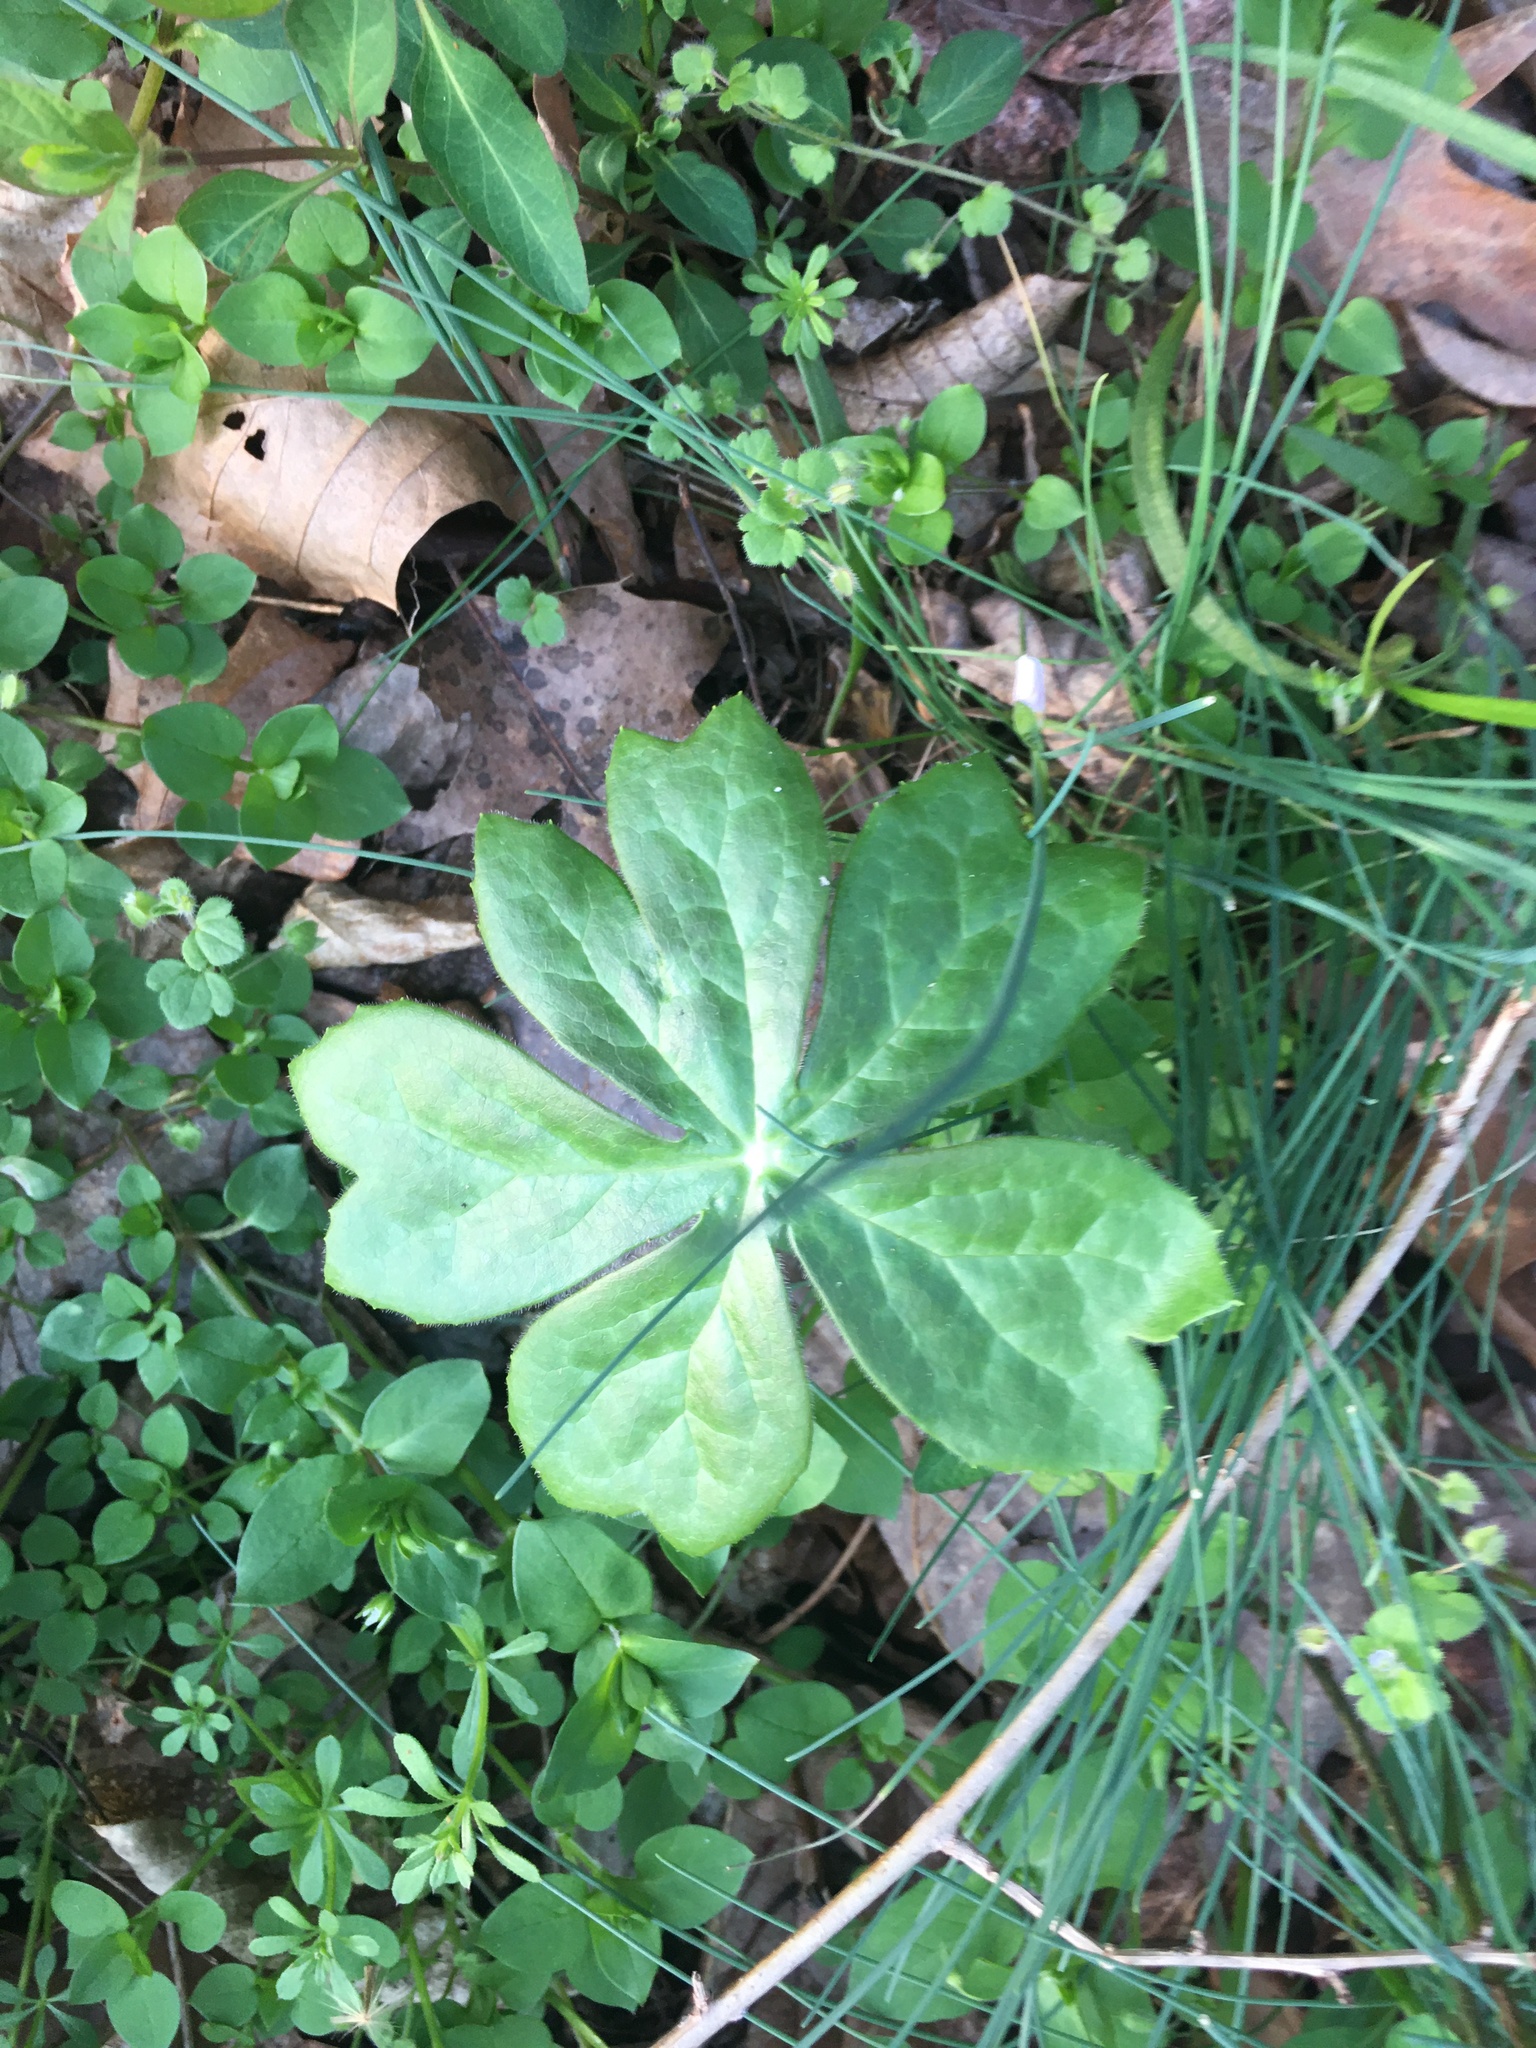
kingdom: Plantae
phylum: Tracheophyta
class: Magnoliopsida
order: Ranunculales
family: Berberidaceae
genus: Podophyllum
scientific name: Podophyllum peltatum
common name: Wild mandrake
